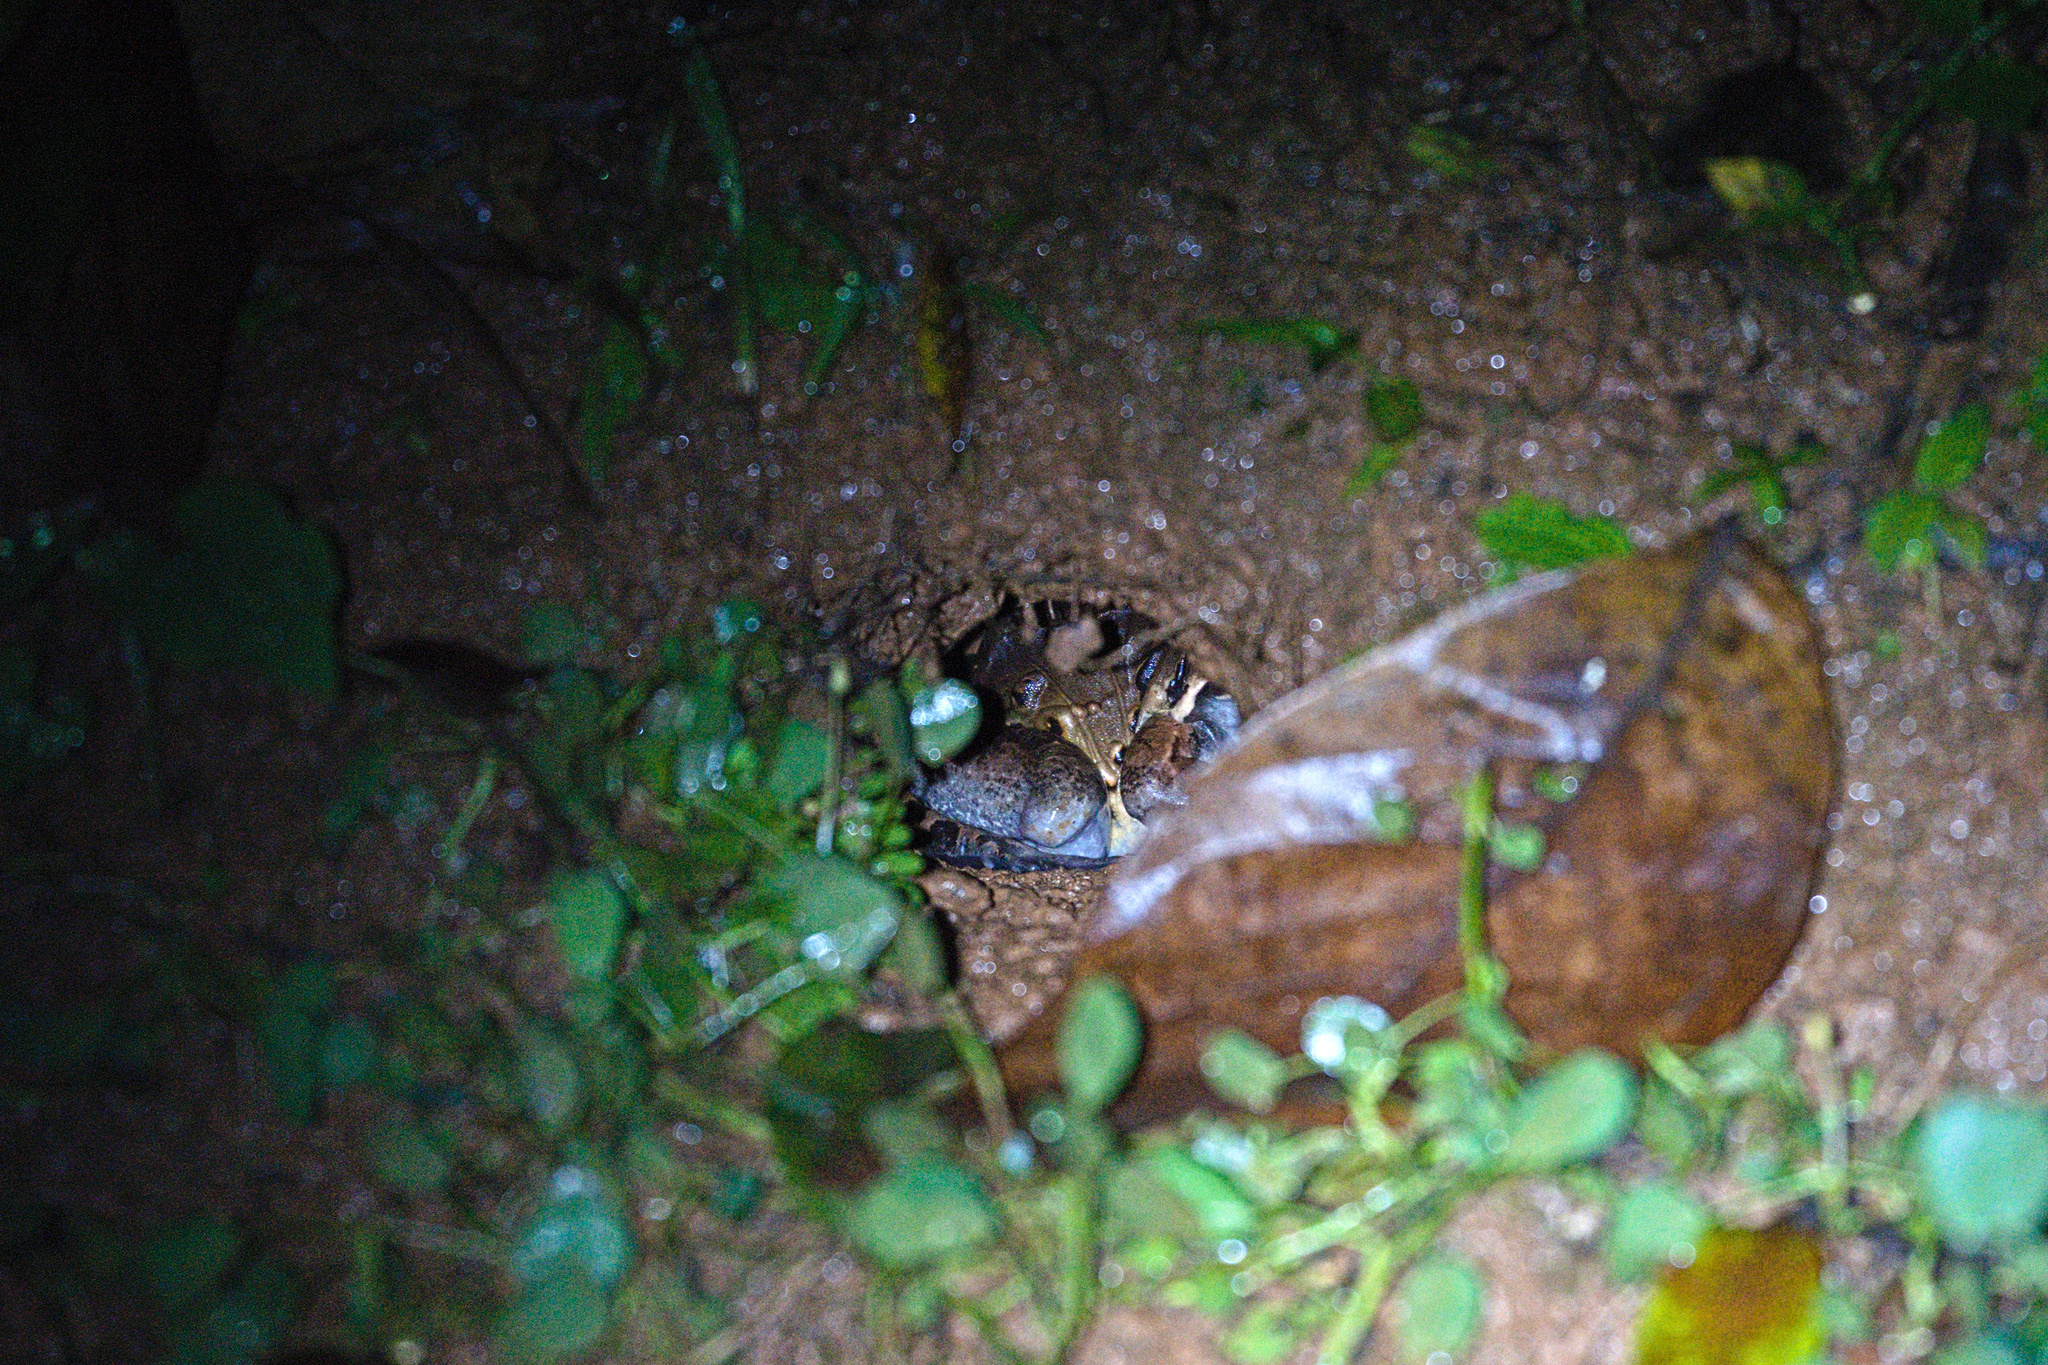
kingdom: Animalia
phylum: Chordata
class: Amphibia
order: Anura
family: Leptodactylidae
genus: Leptodactylus
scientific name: Leptodactylus savagei
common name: Savage's thin-toed frog
